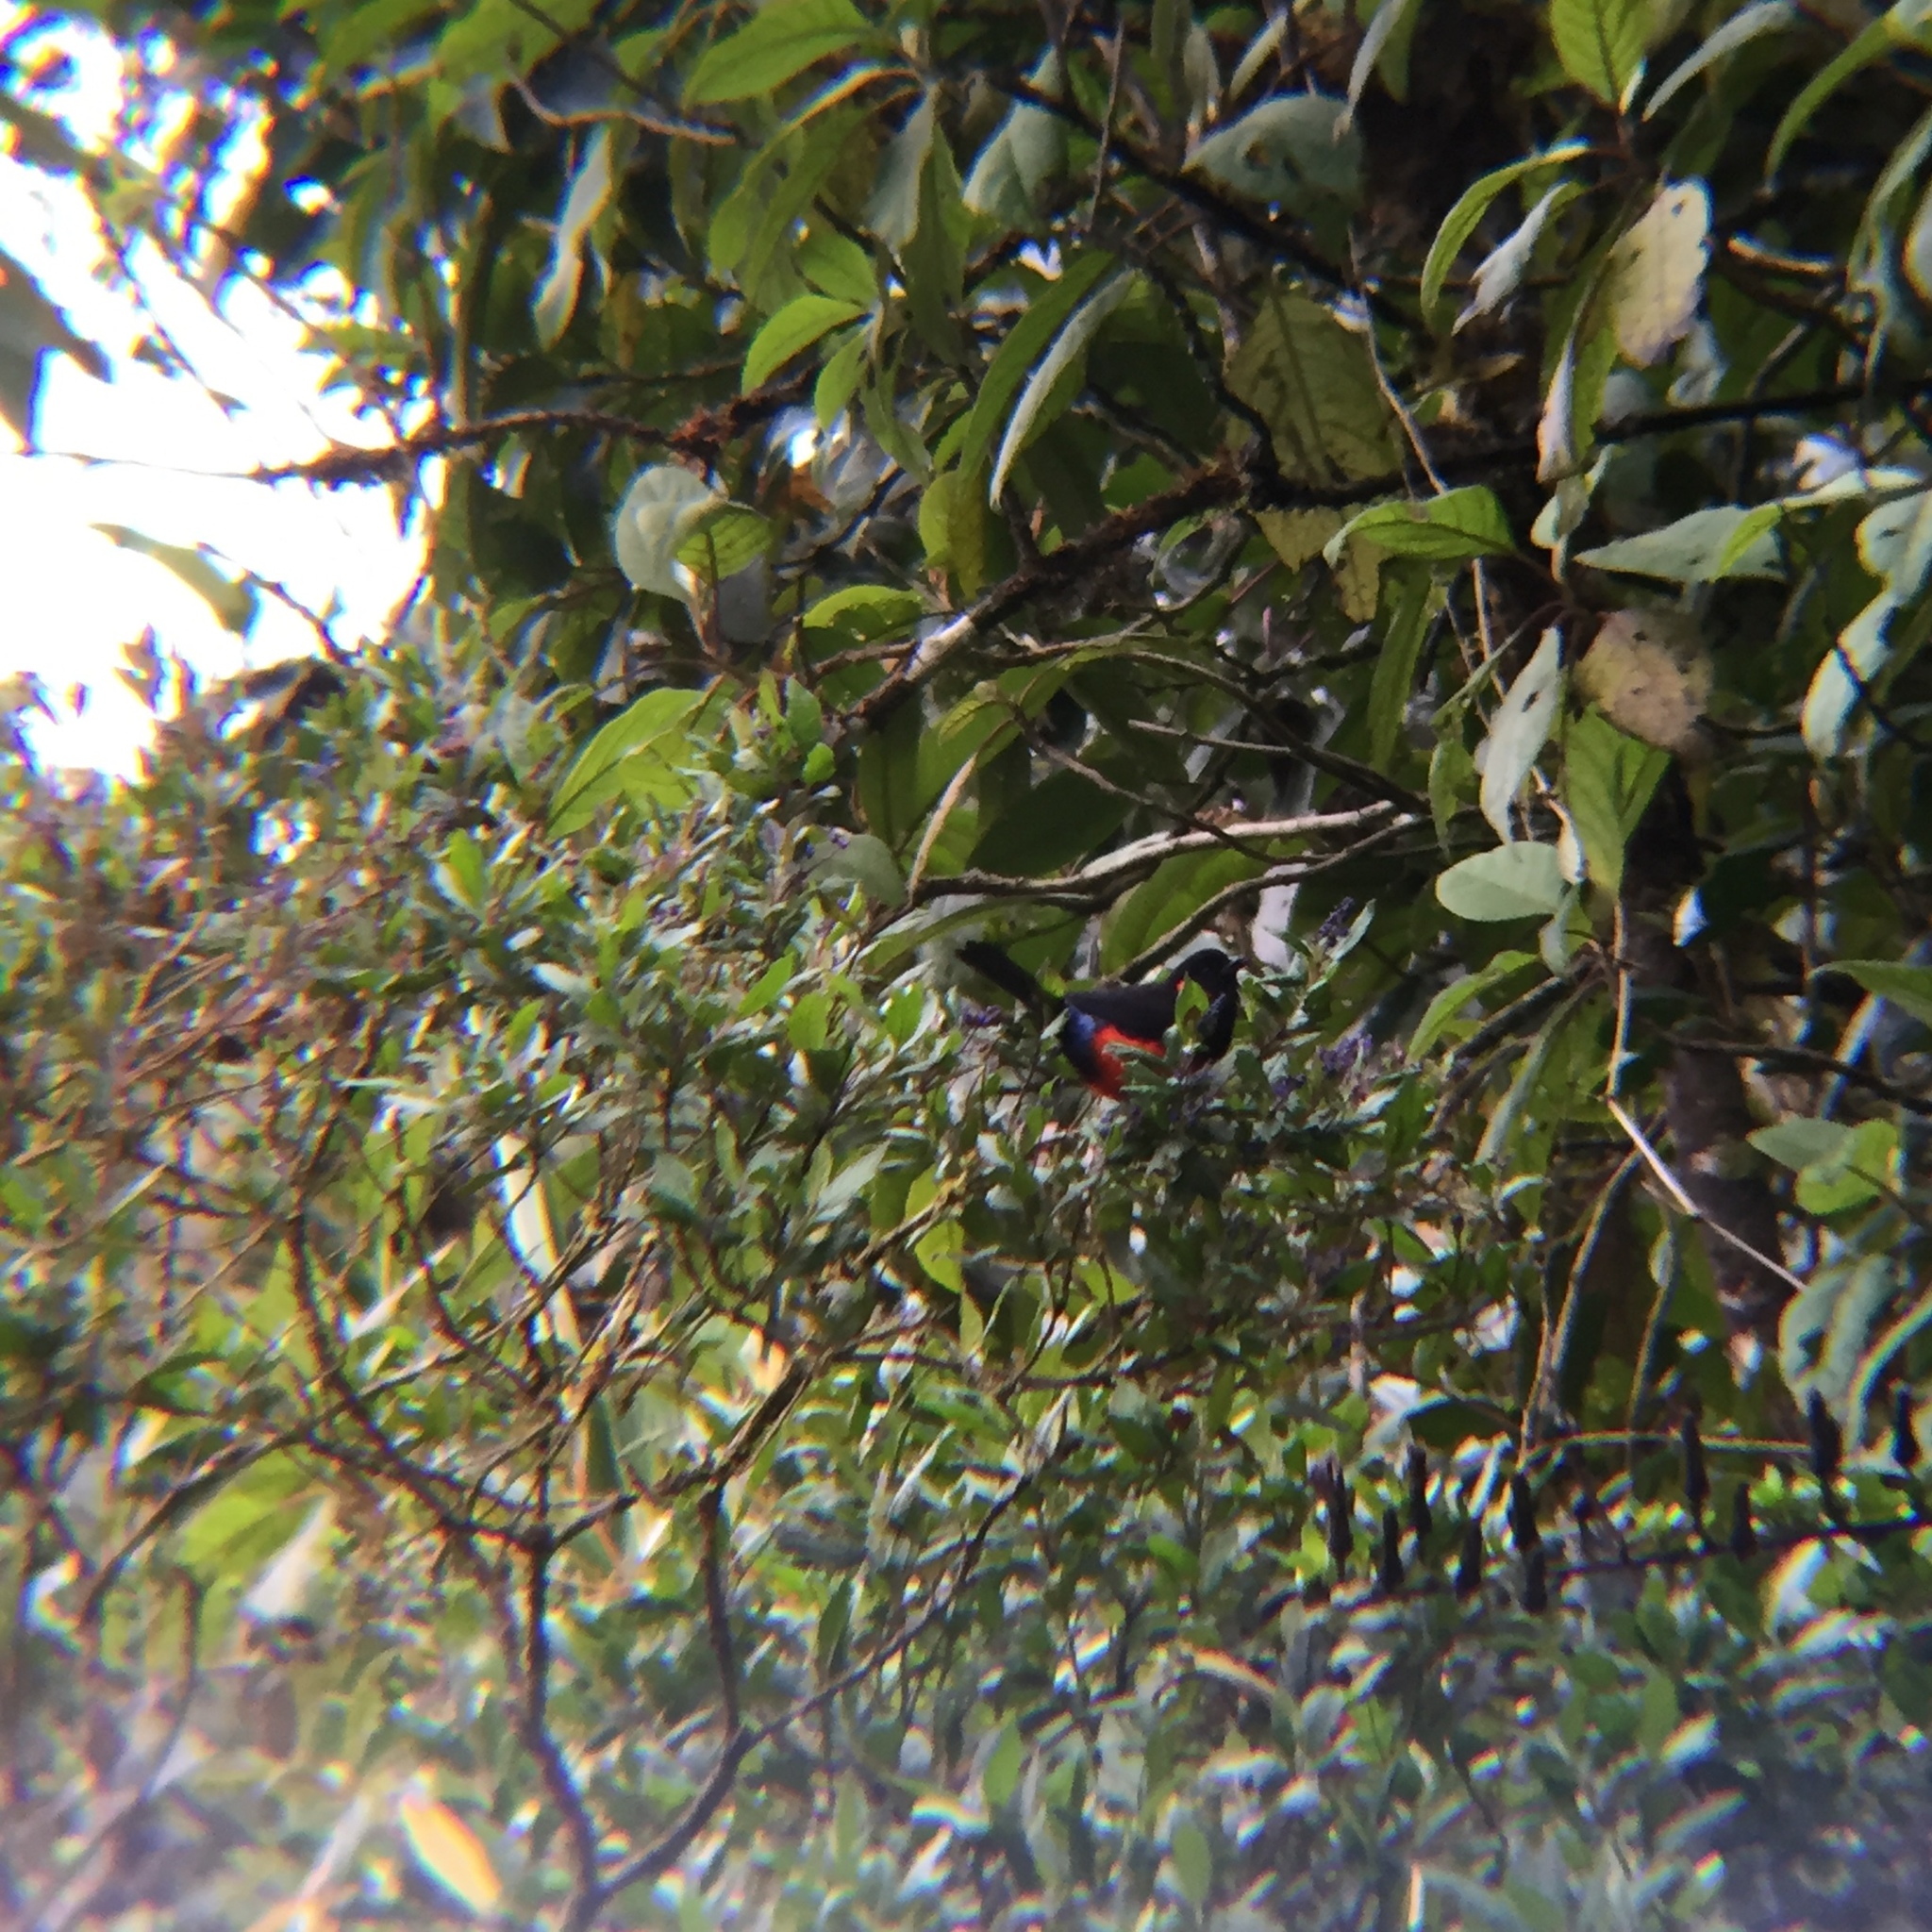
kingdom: Animalia
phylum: Chordata
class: Aves
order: Passeriformes
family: Thraupidae
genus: Anisognathus
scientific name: Anisognathus igniventris
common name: Scarlet-bellied mountain tanager
